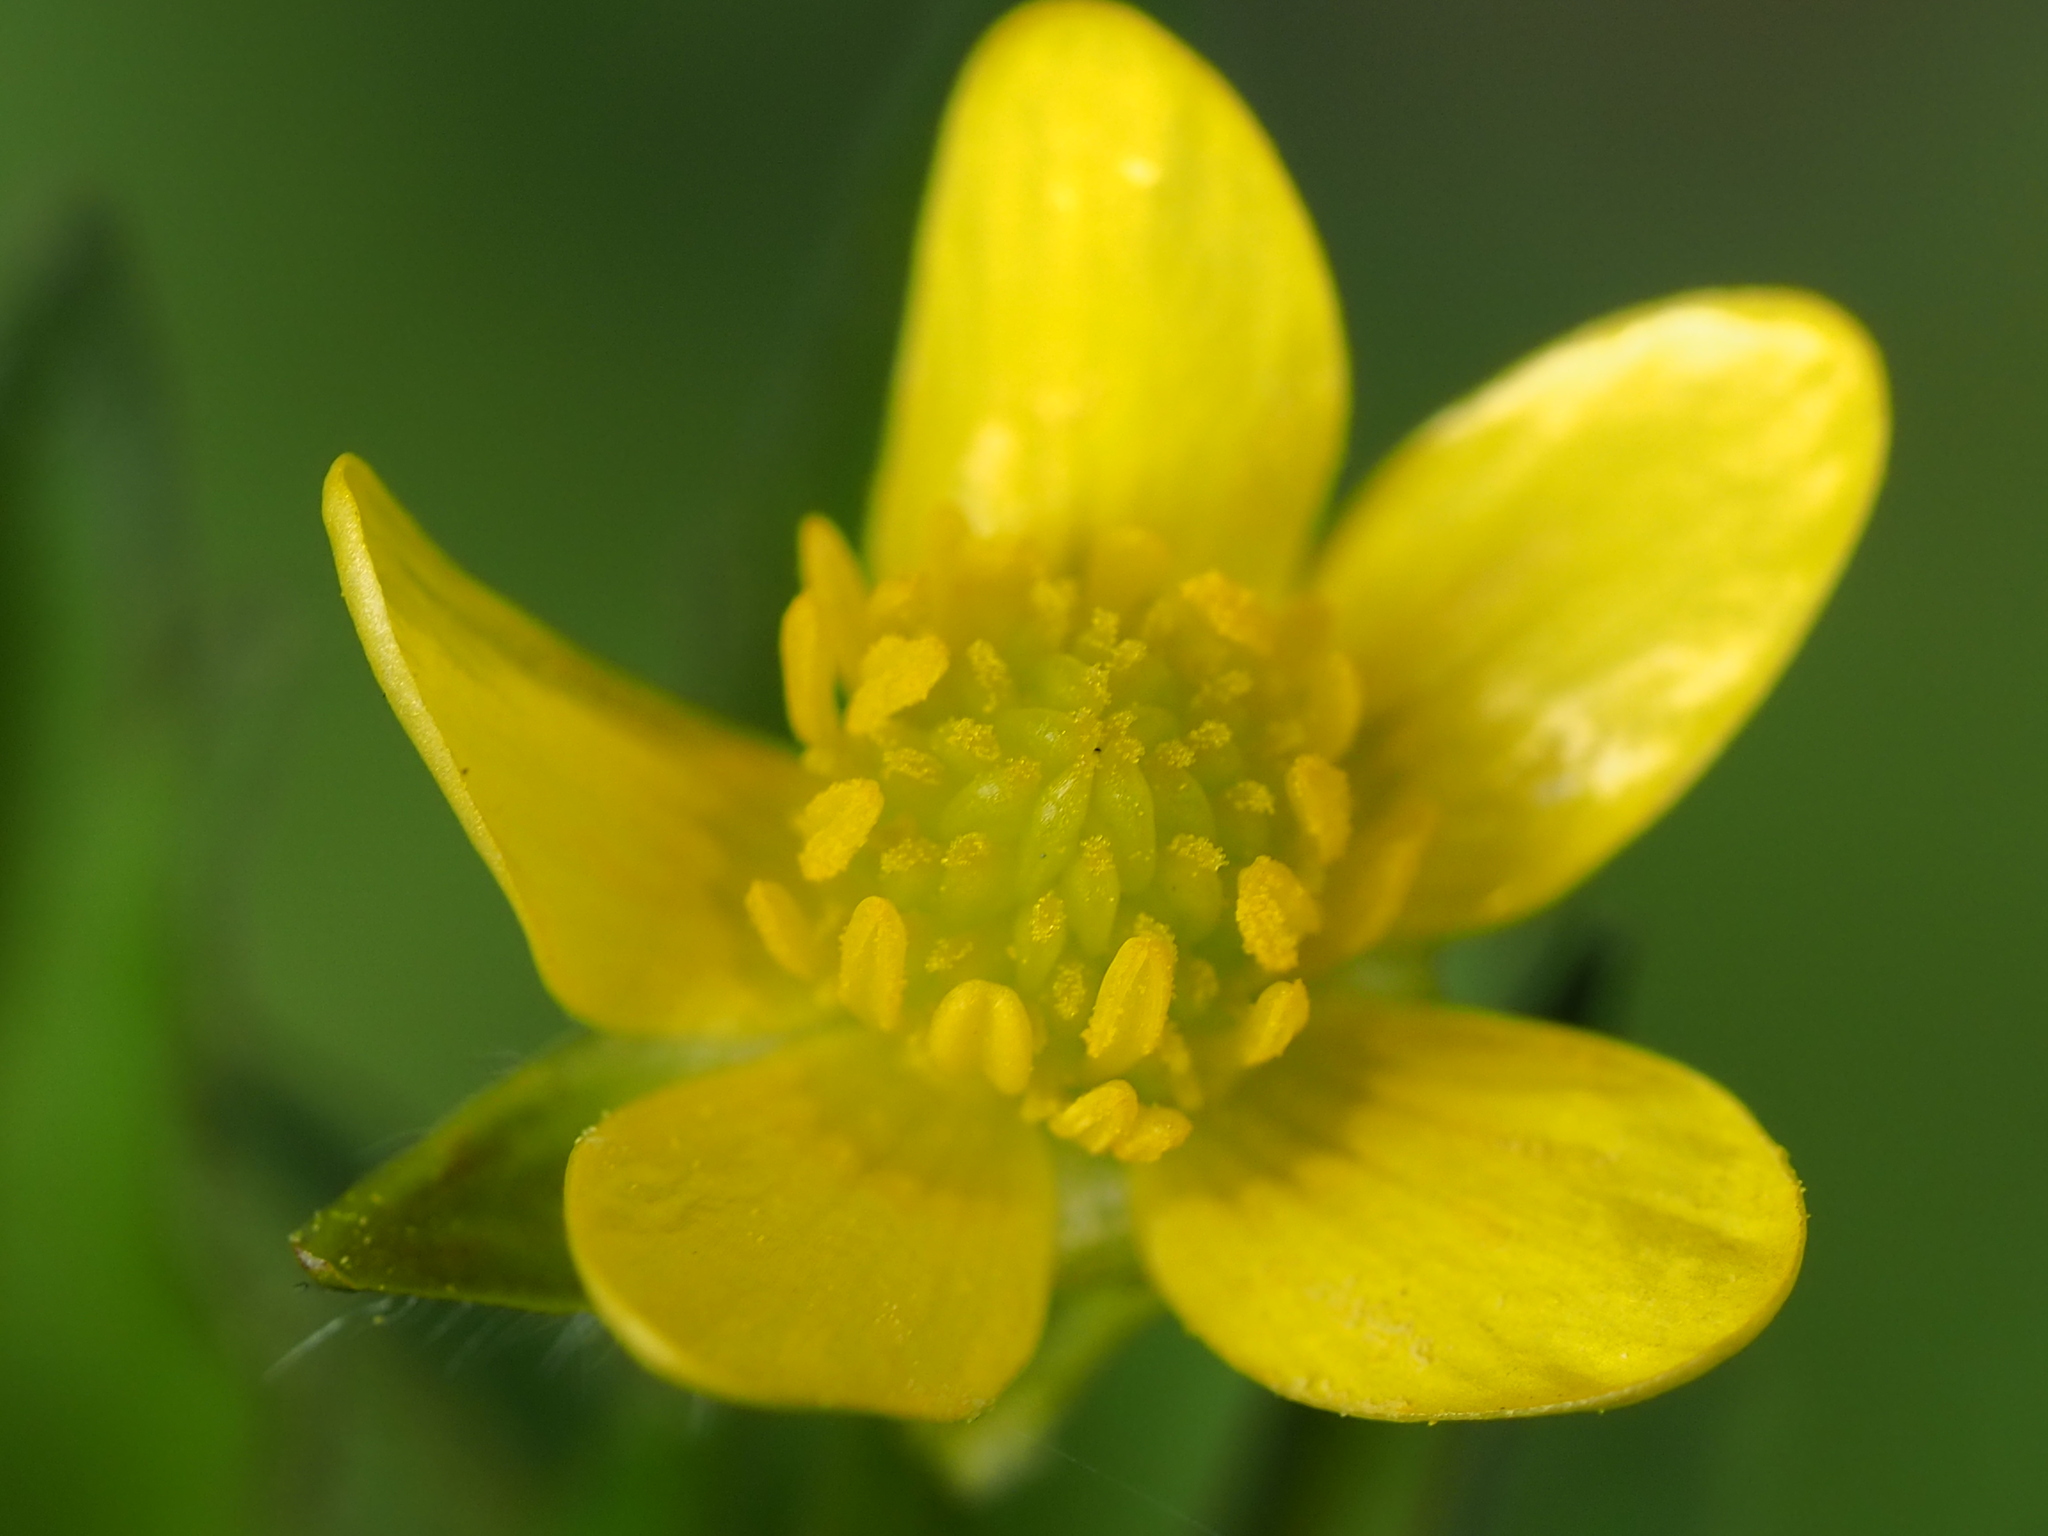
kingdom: Plantae
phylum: Tracheophyta
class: Magnoliopsida
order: Ranunculales
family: Ranunculaceae
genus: Ranunculus
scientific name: Ranunculus cantoniensis
